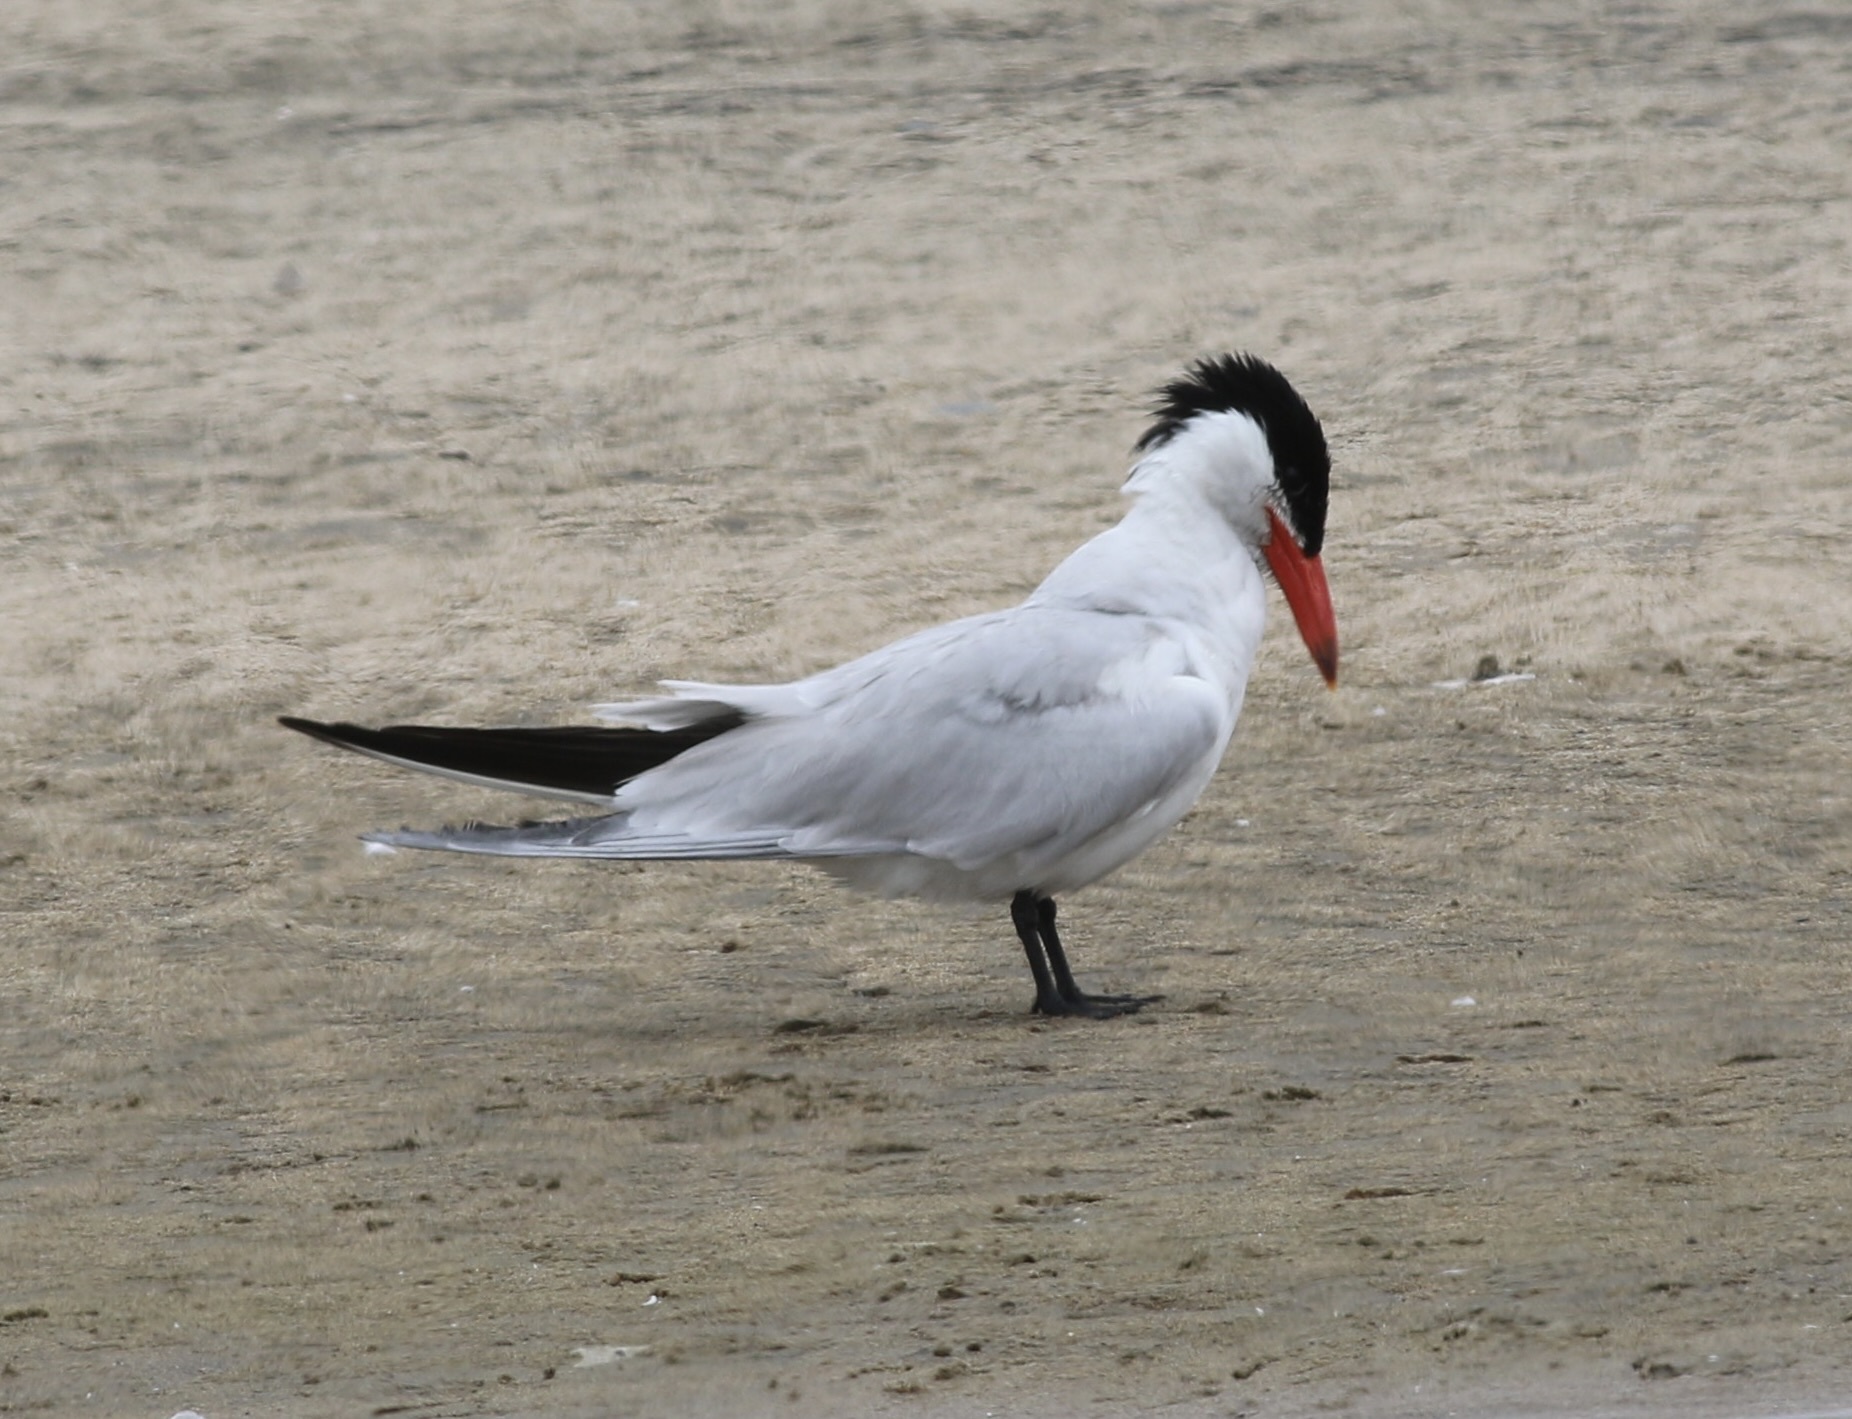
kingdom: Animalia
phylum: Chordata
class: Aves
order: Charadriiformes
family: Laridae
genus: Hydroprogne
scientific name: Hydroprogne caspia
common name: Caspian tern
